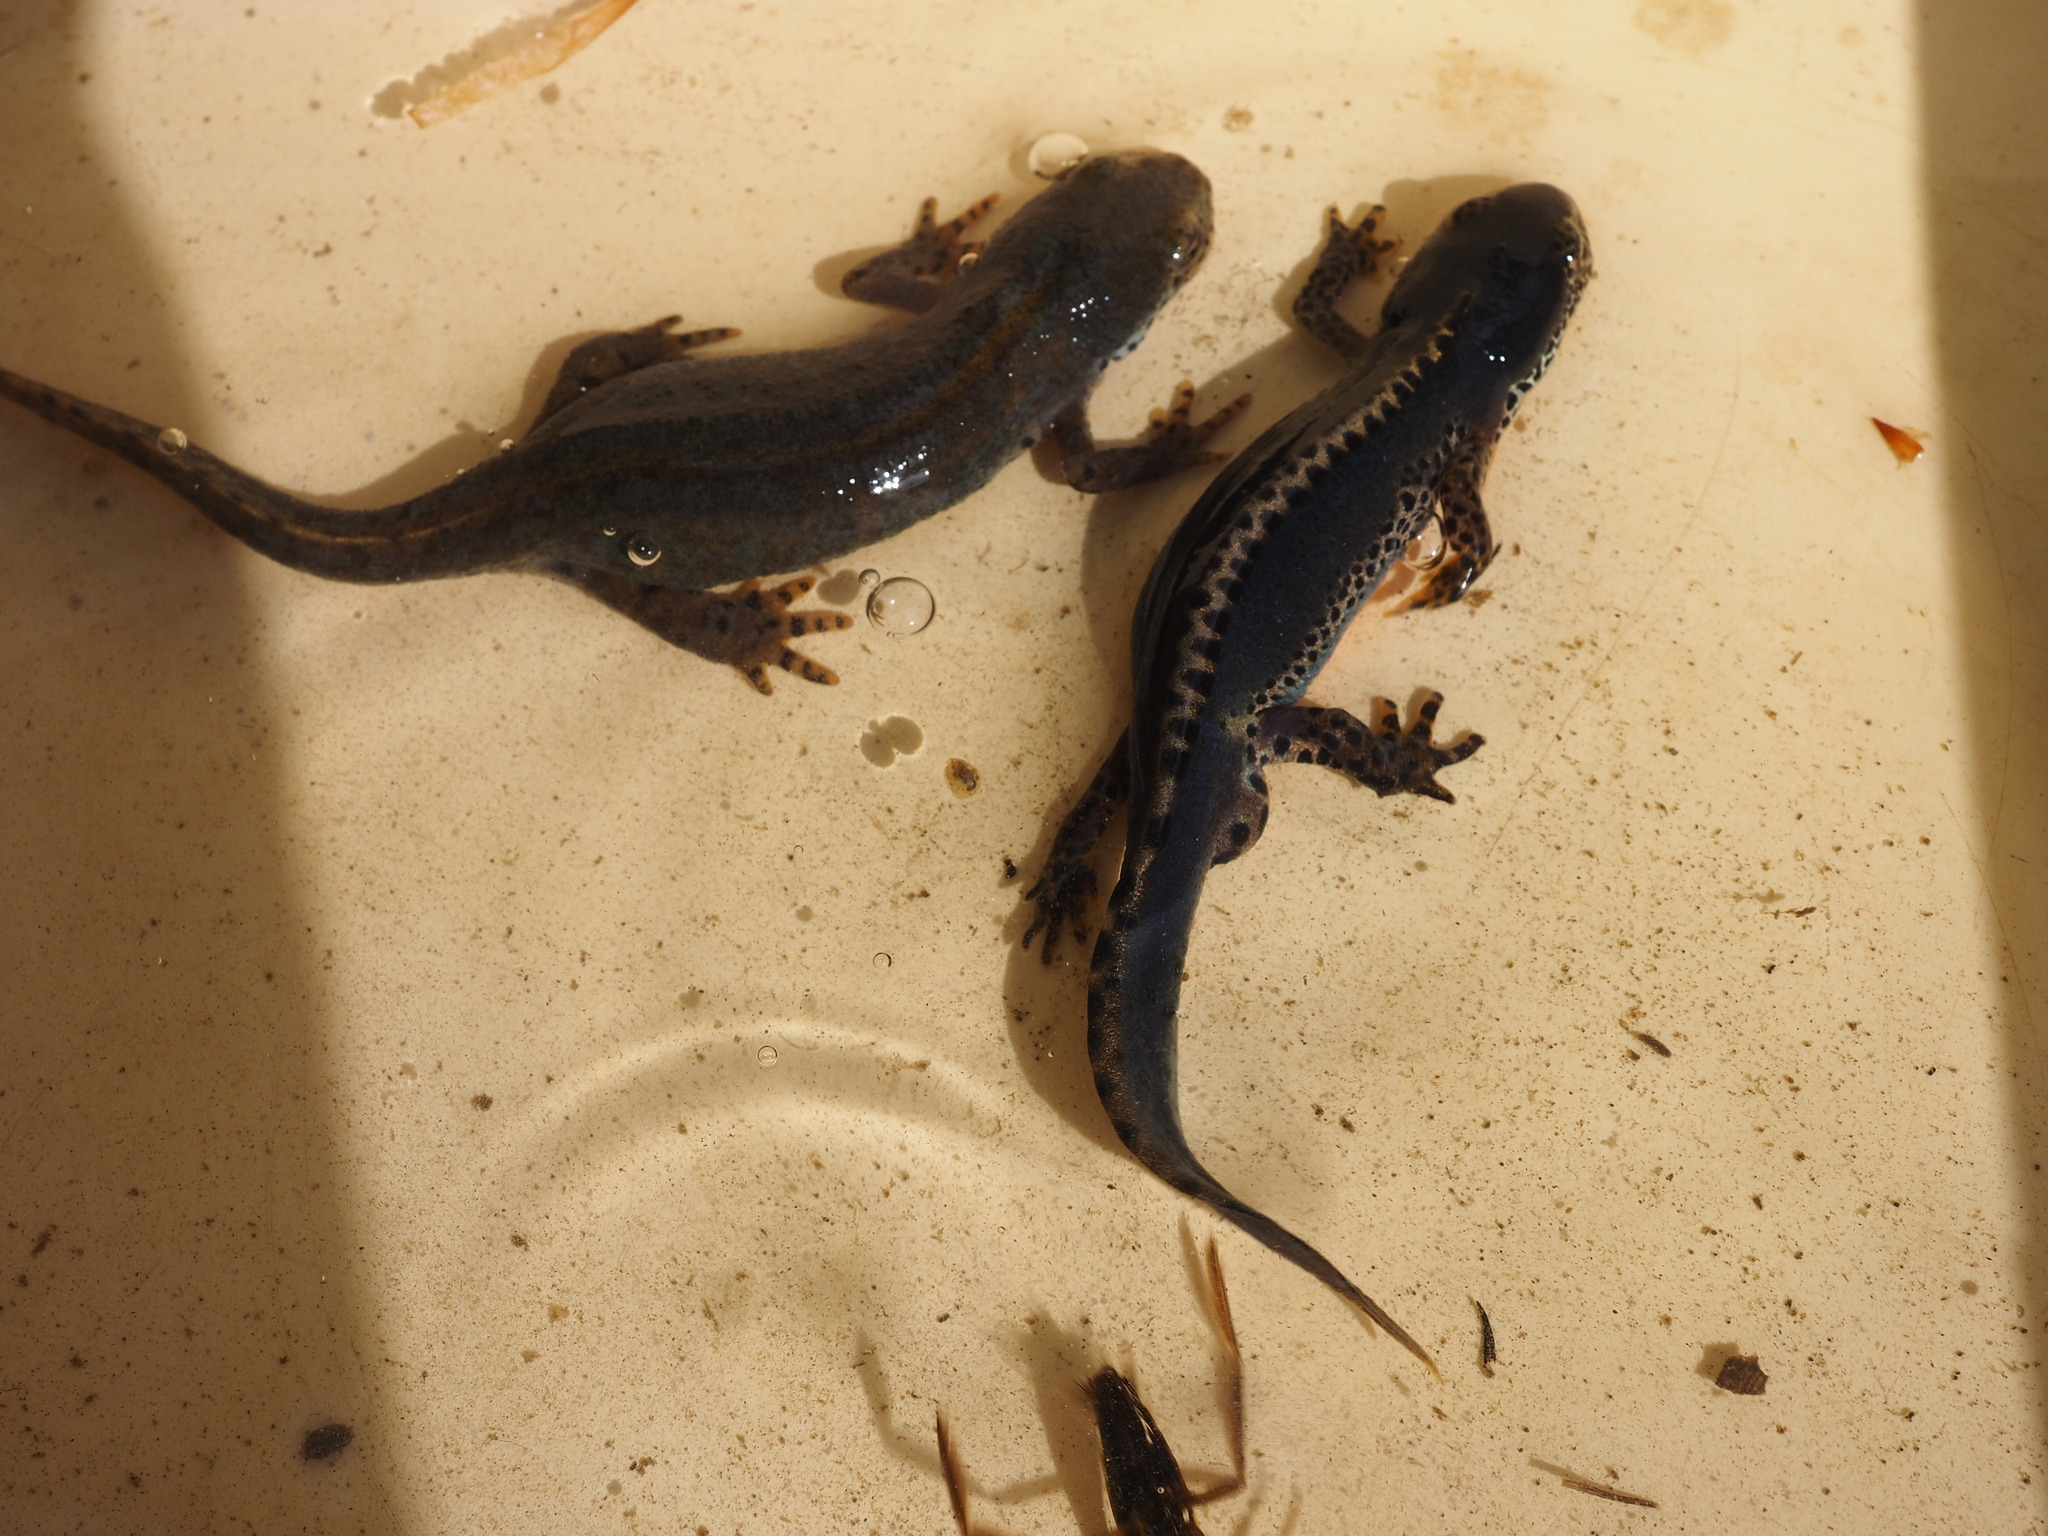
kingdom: Animalia
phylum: Chordata
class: Amphibia
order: Caudata
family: Salamandridae
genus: Ichthyosaura
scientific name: Ichthyosaura alpestris
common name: Alpine newt
